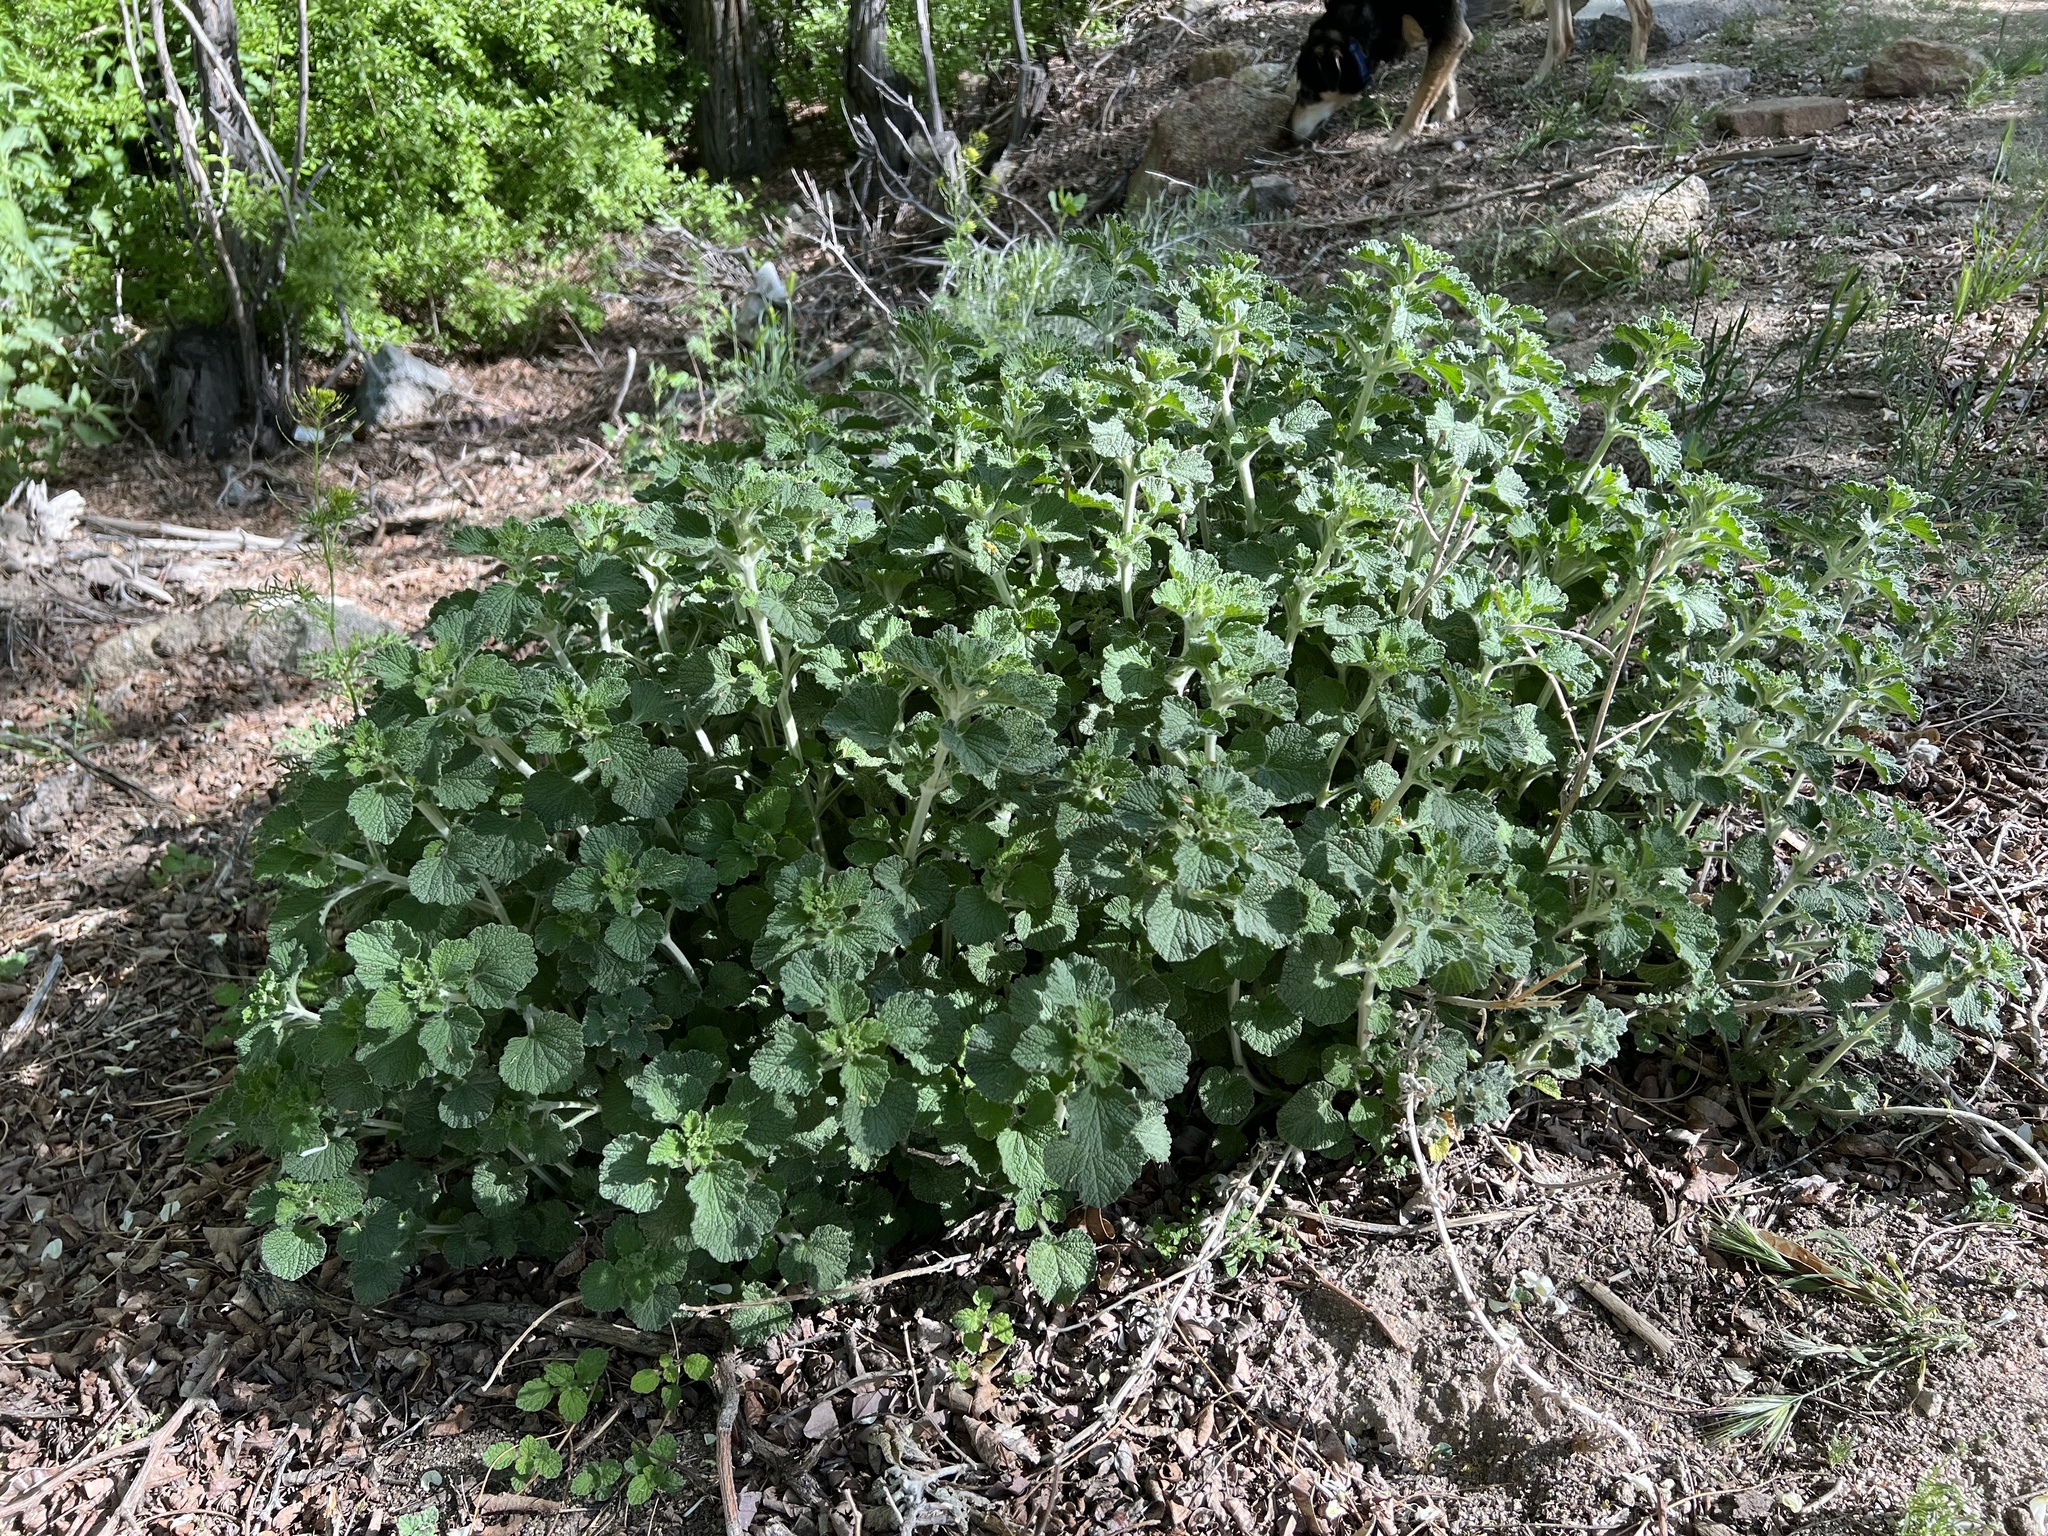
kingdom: Plantae
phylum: Tracheophyta
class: Magnoliopsida
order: Lamiales
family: Lamiaceae
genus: Marrubium
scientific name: Marrubium vulgare
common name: Horehound
